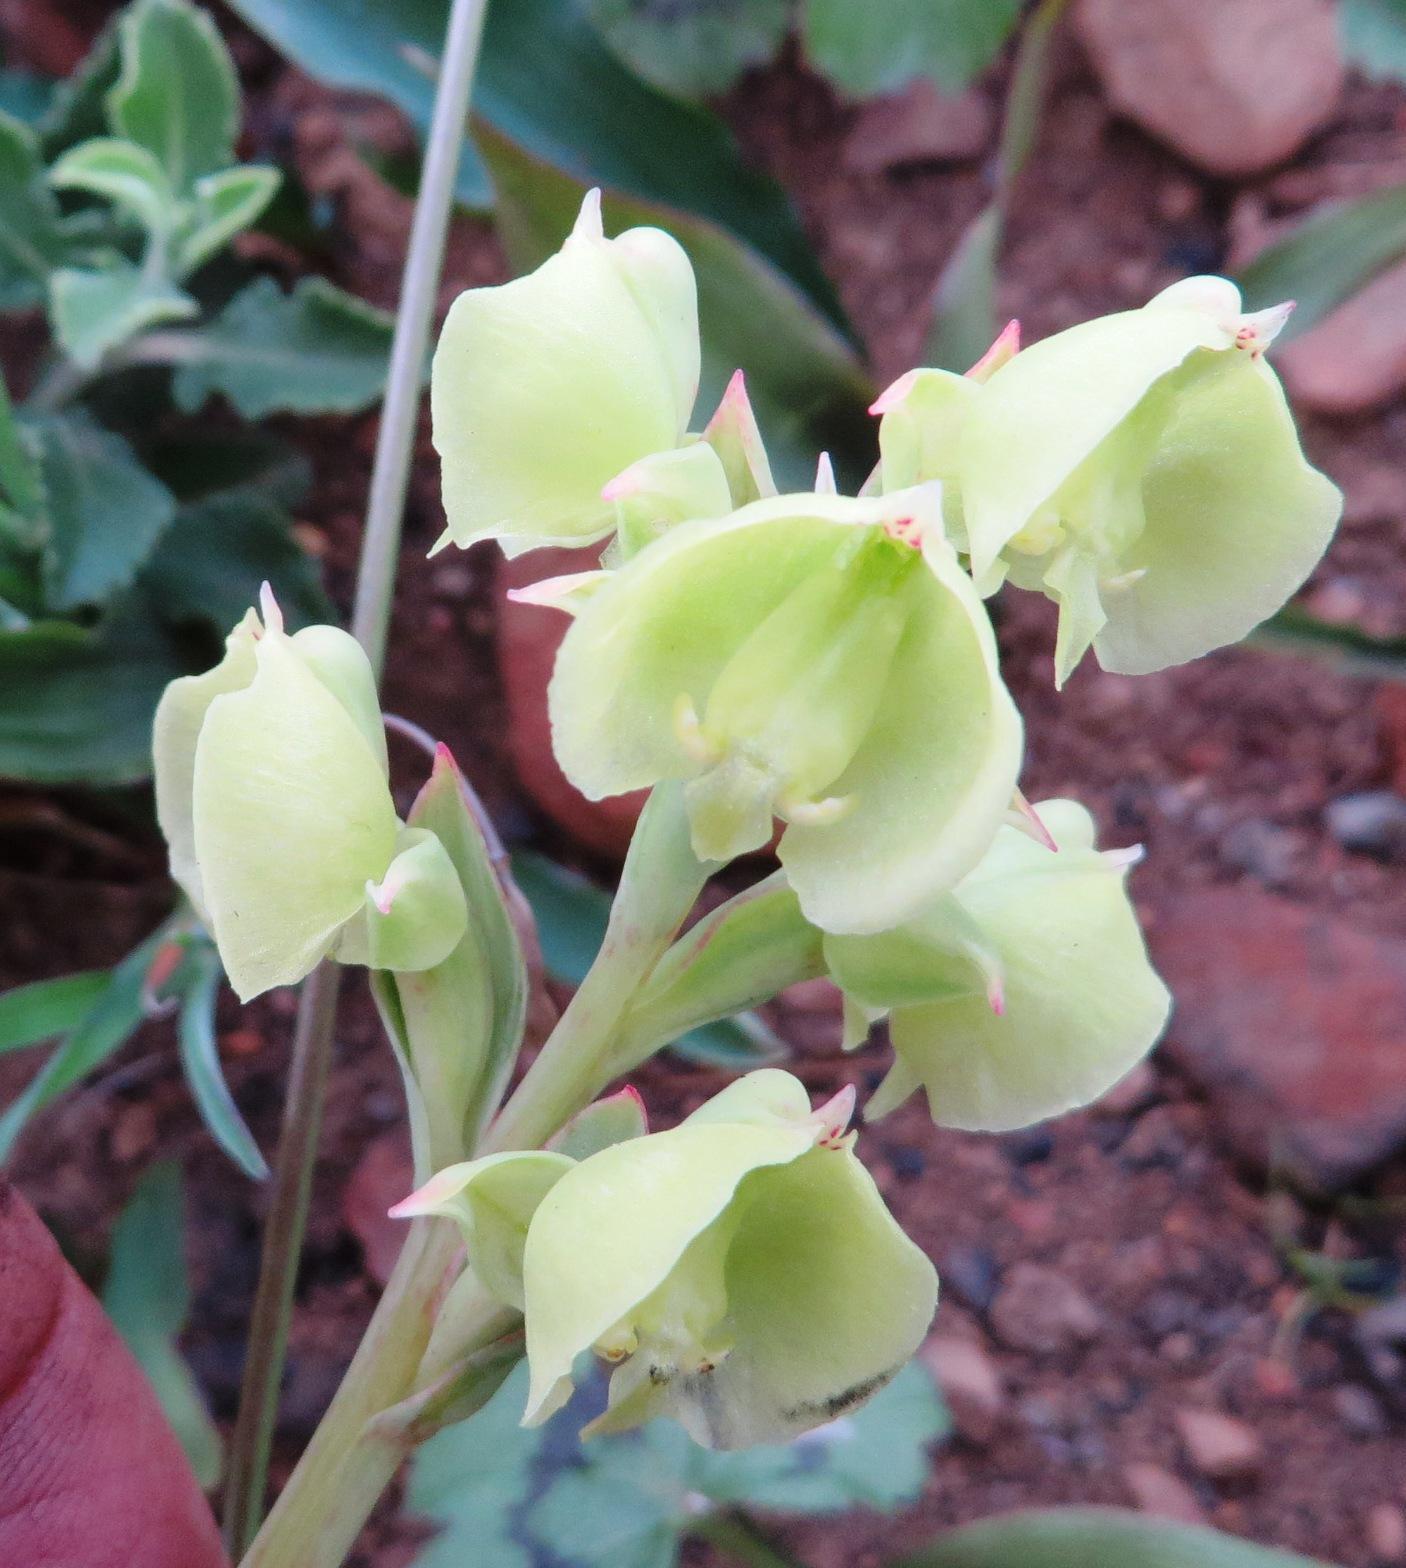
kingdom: Plantae
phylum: Tracheophyta
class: Liliopsida
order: Asparagales
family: Orchidaceae
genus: Pterygodium
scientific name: Pterygodium catholicum
